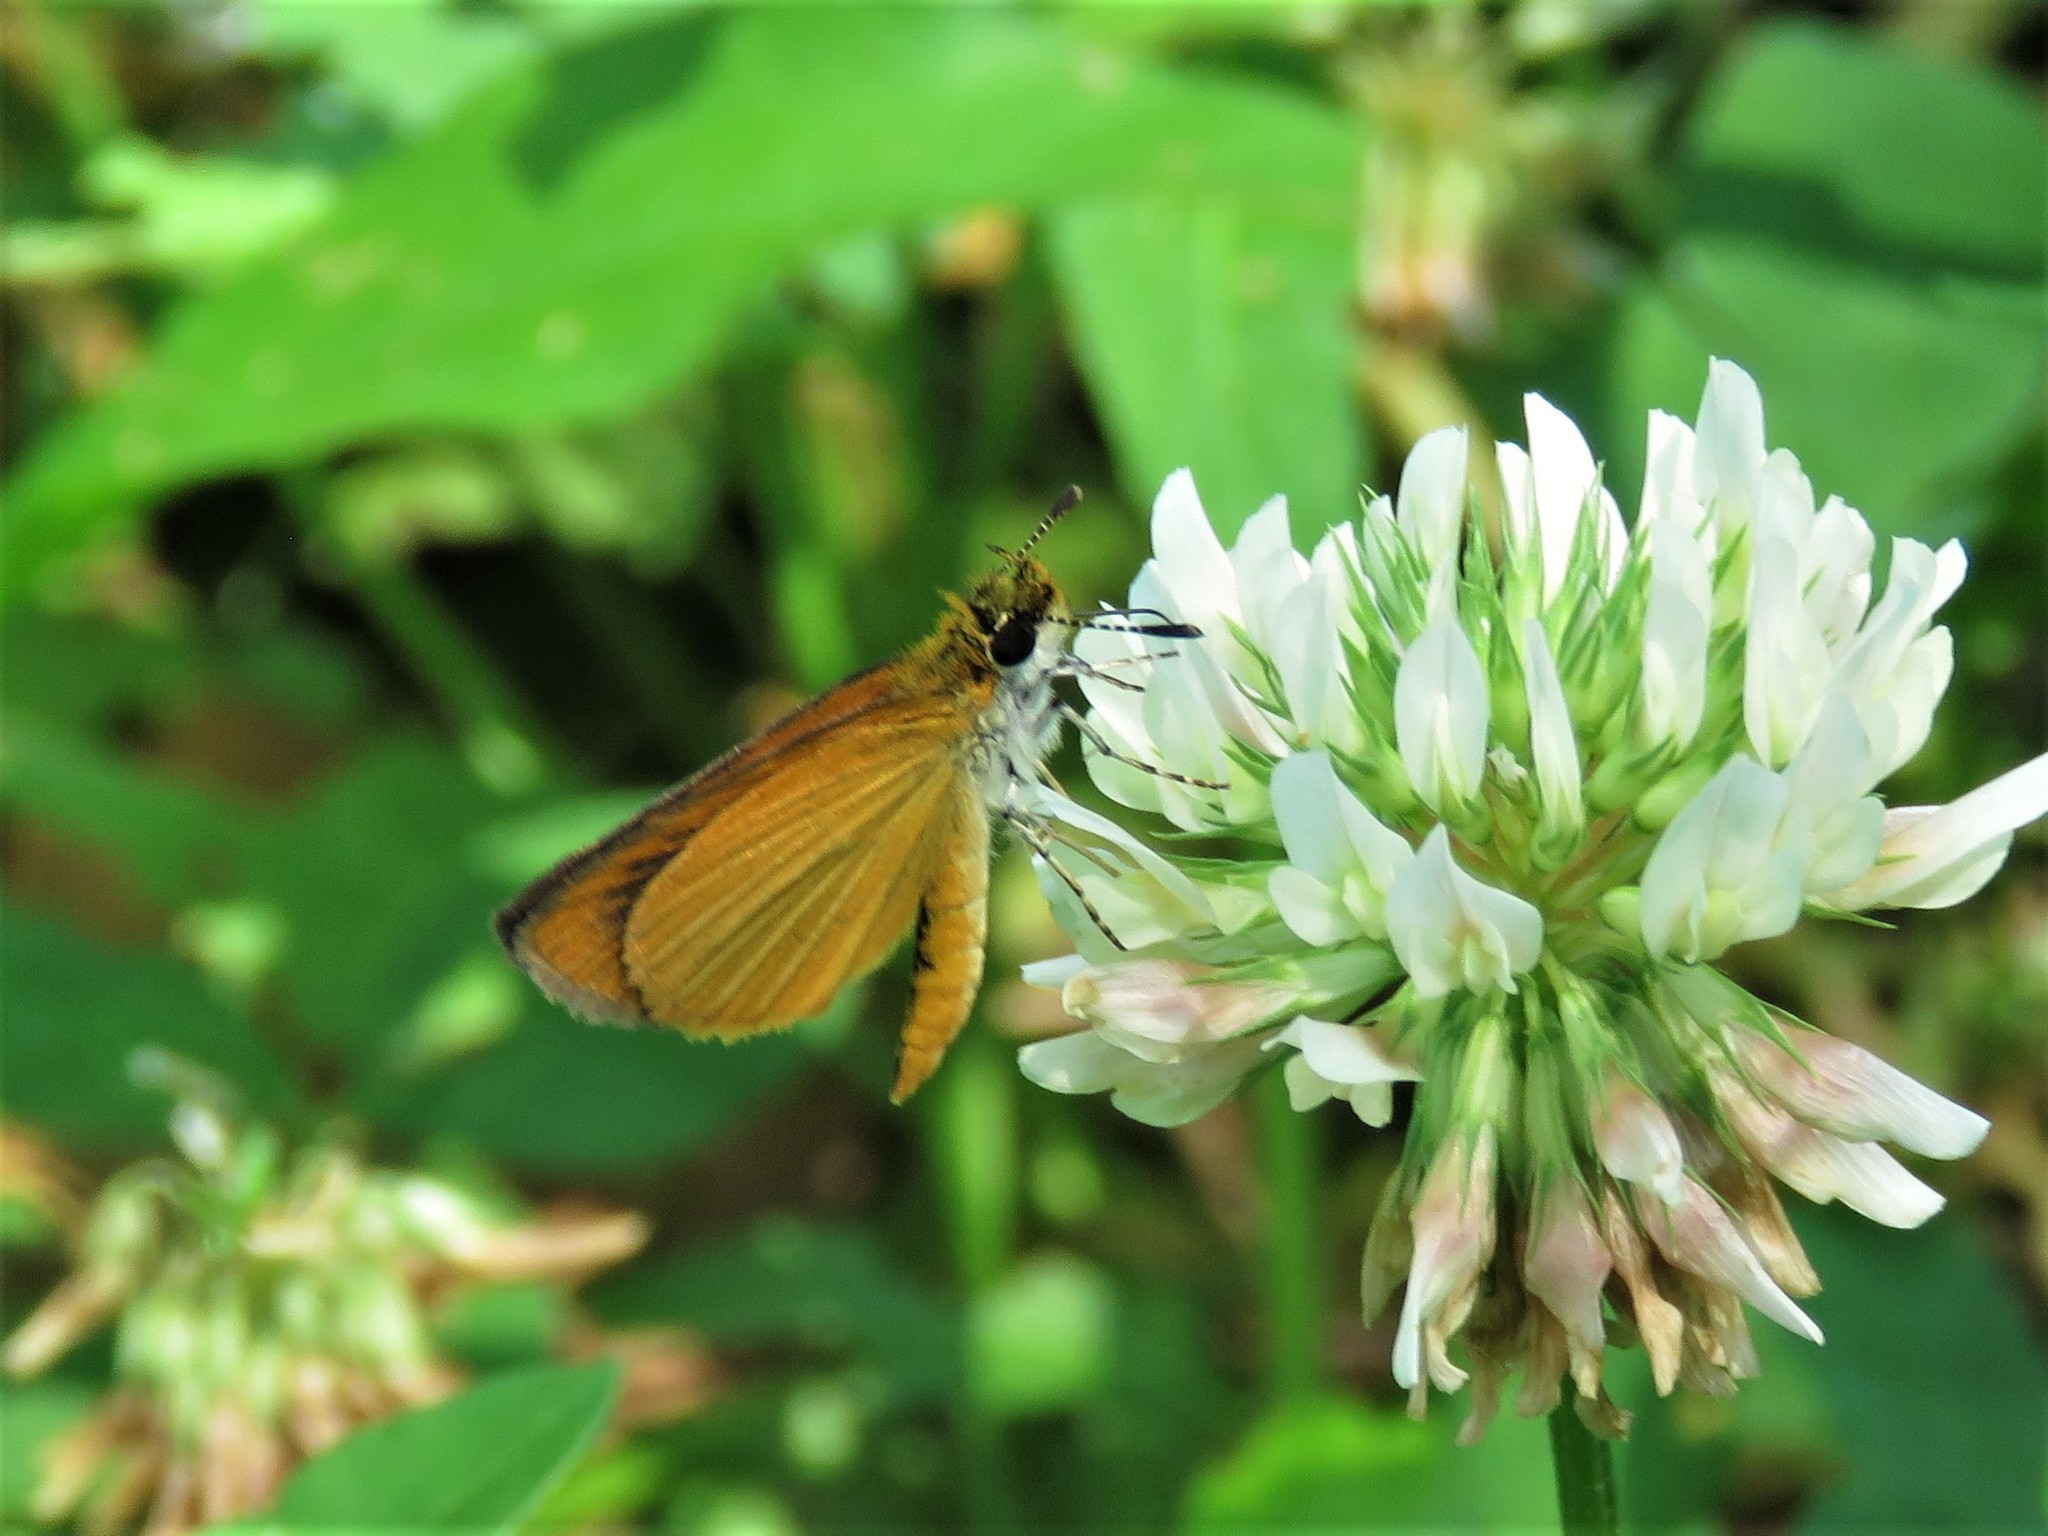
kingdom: Animalia
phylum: Arthropoda
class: Insecta
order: Lepidoptera
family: Hesperiidae
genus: Ancyloxypha
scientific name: Ancyloxypha numitor
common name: Least skipper
